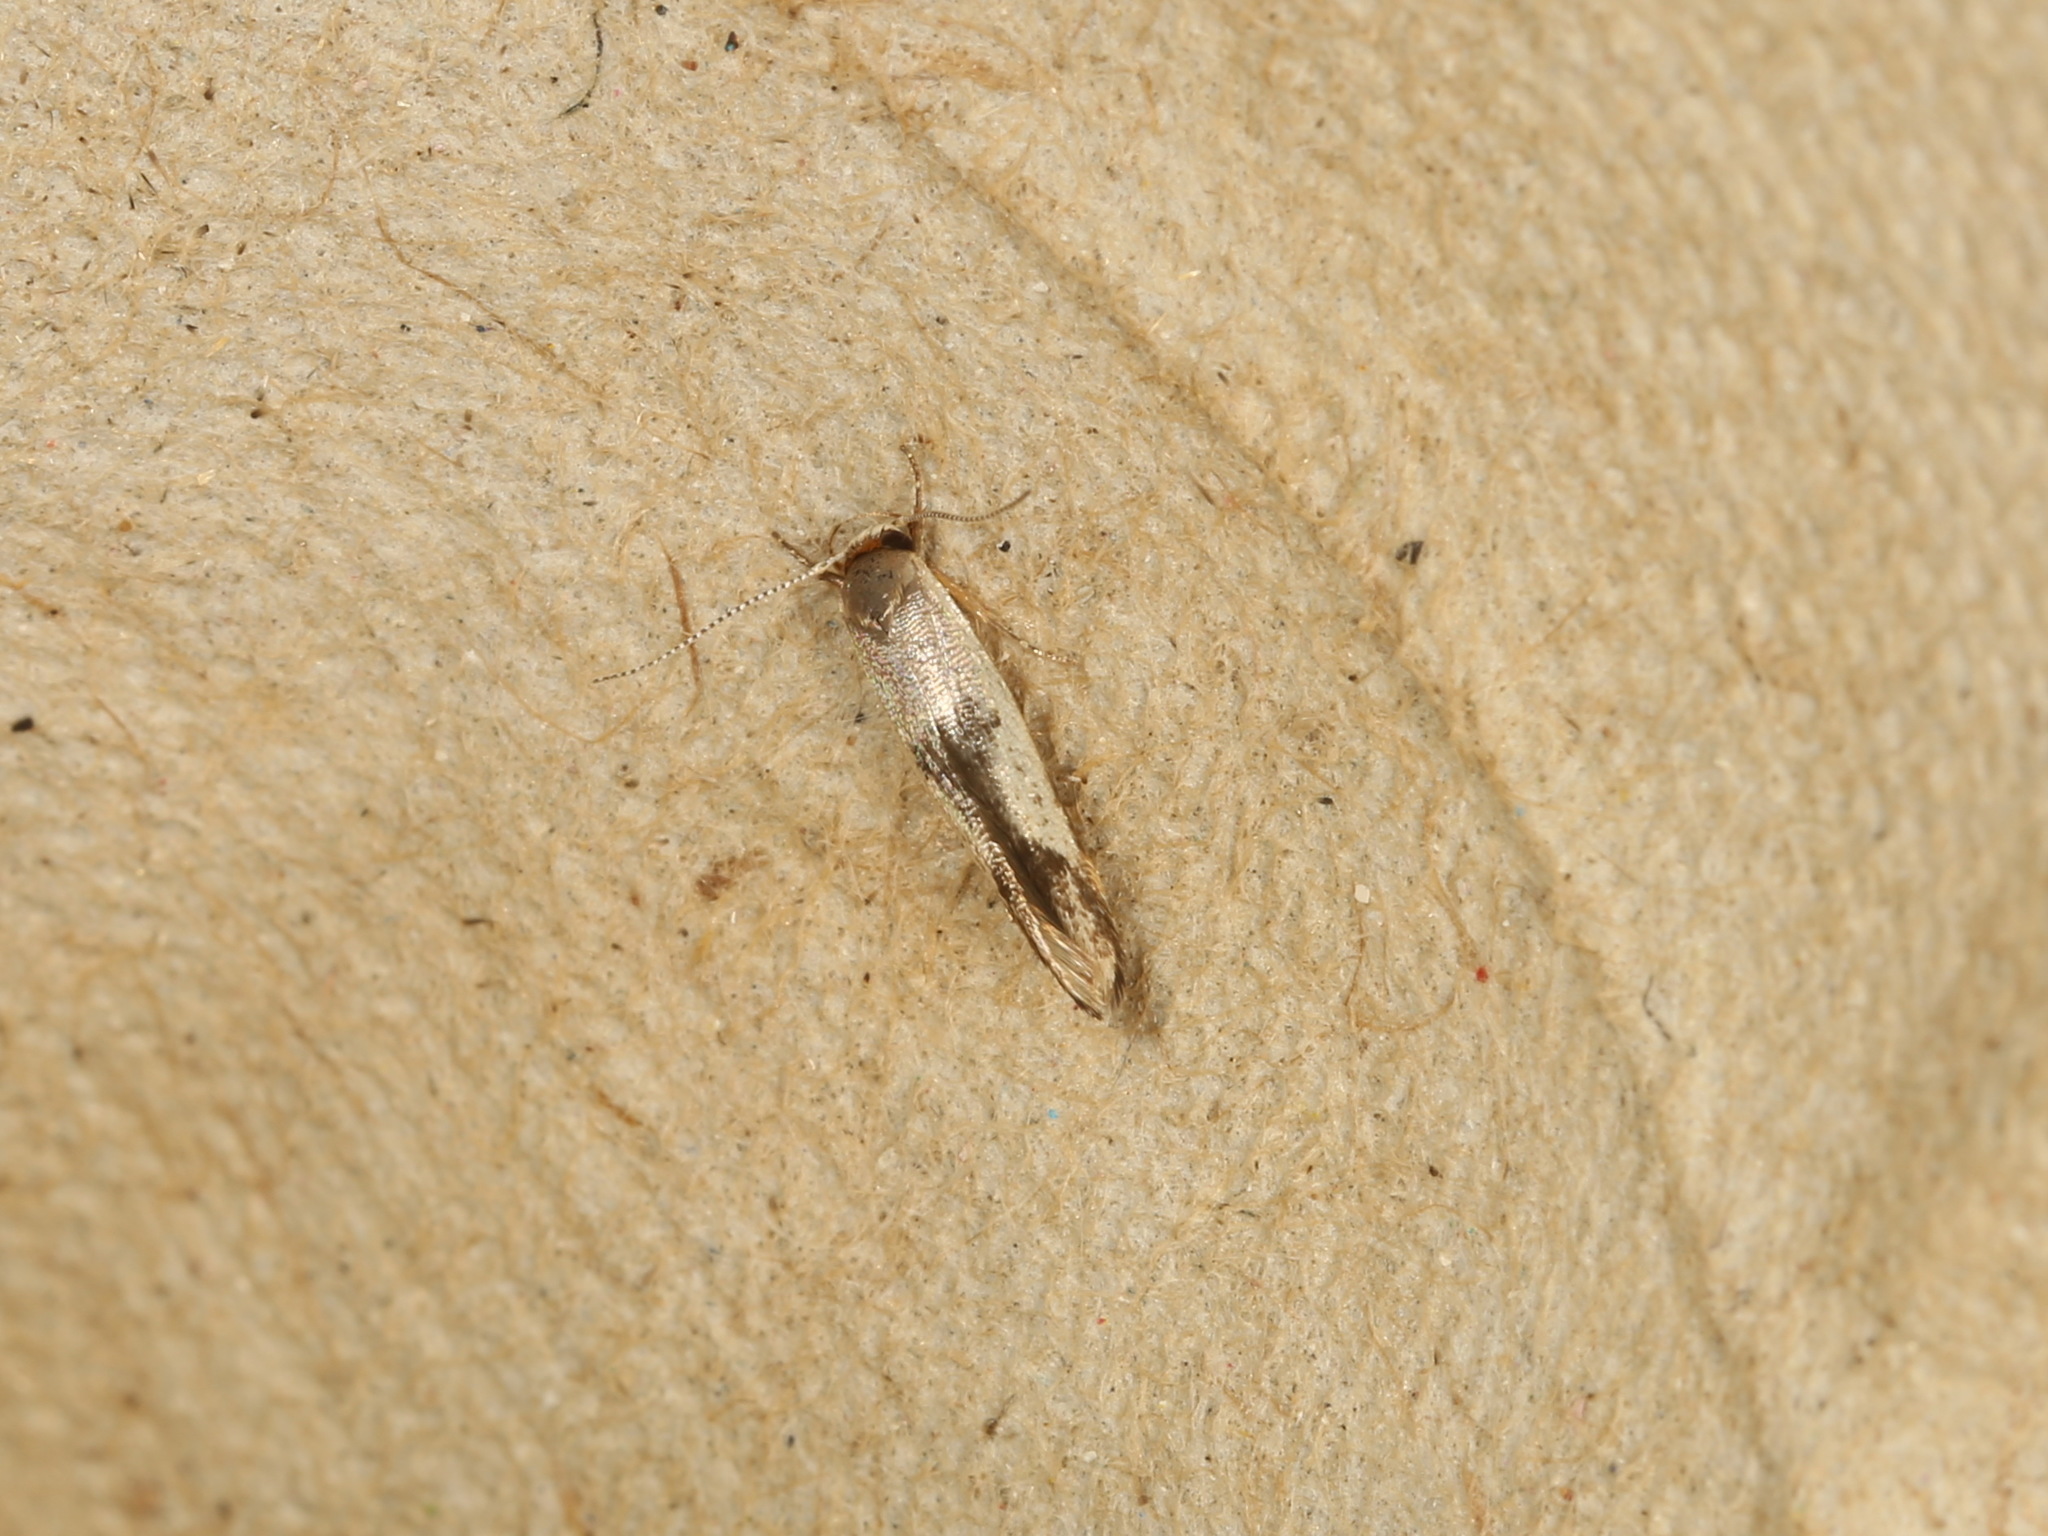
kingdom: Animalia
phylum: Arthropoda
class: Insecta
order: Lepidoptera
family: Stathmopodidae
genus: Stathmopoda
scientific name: Stathmopoda megathyma
